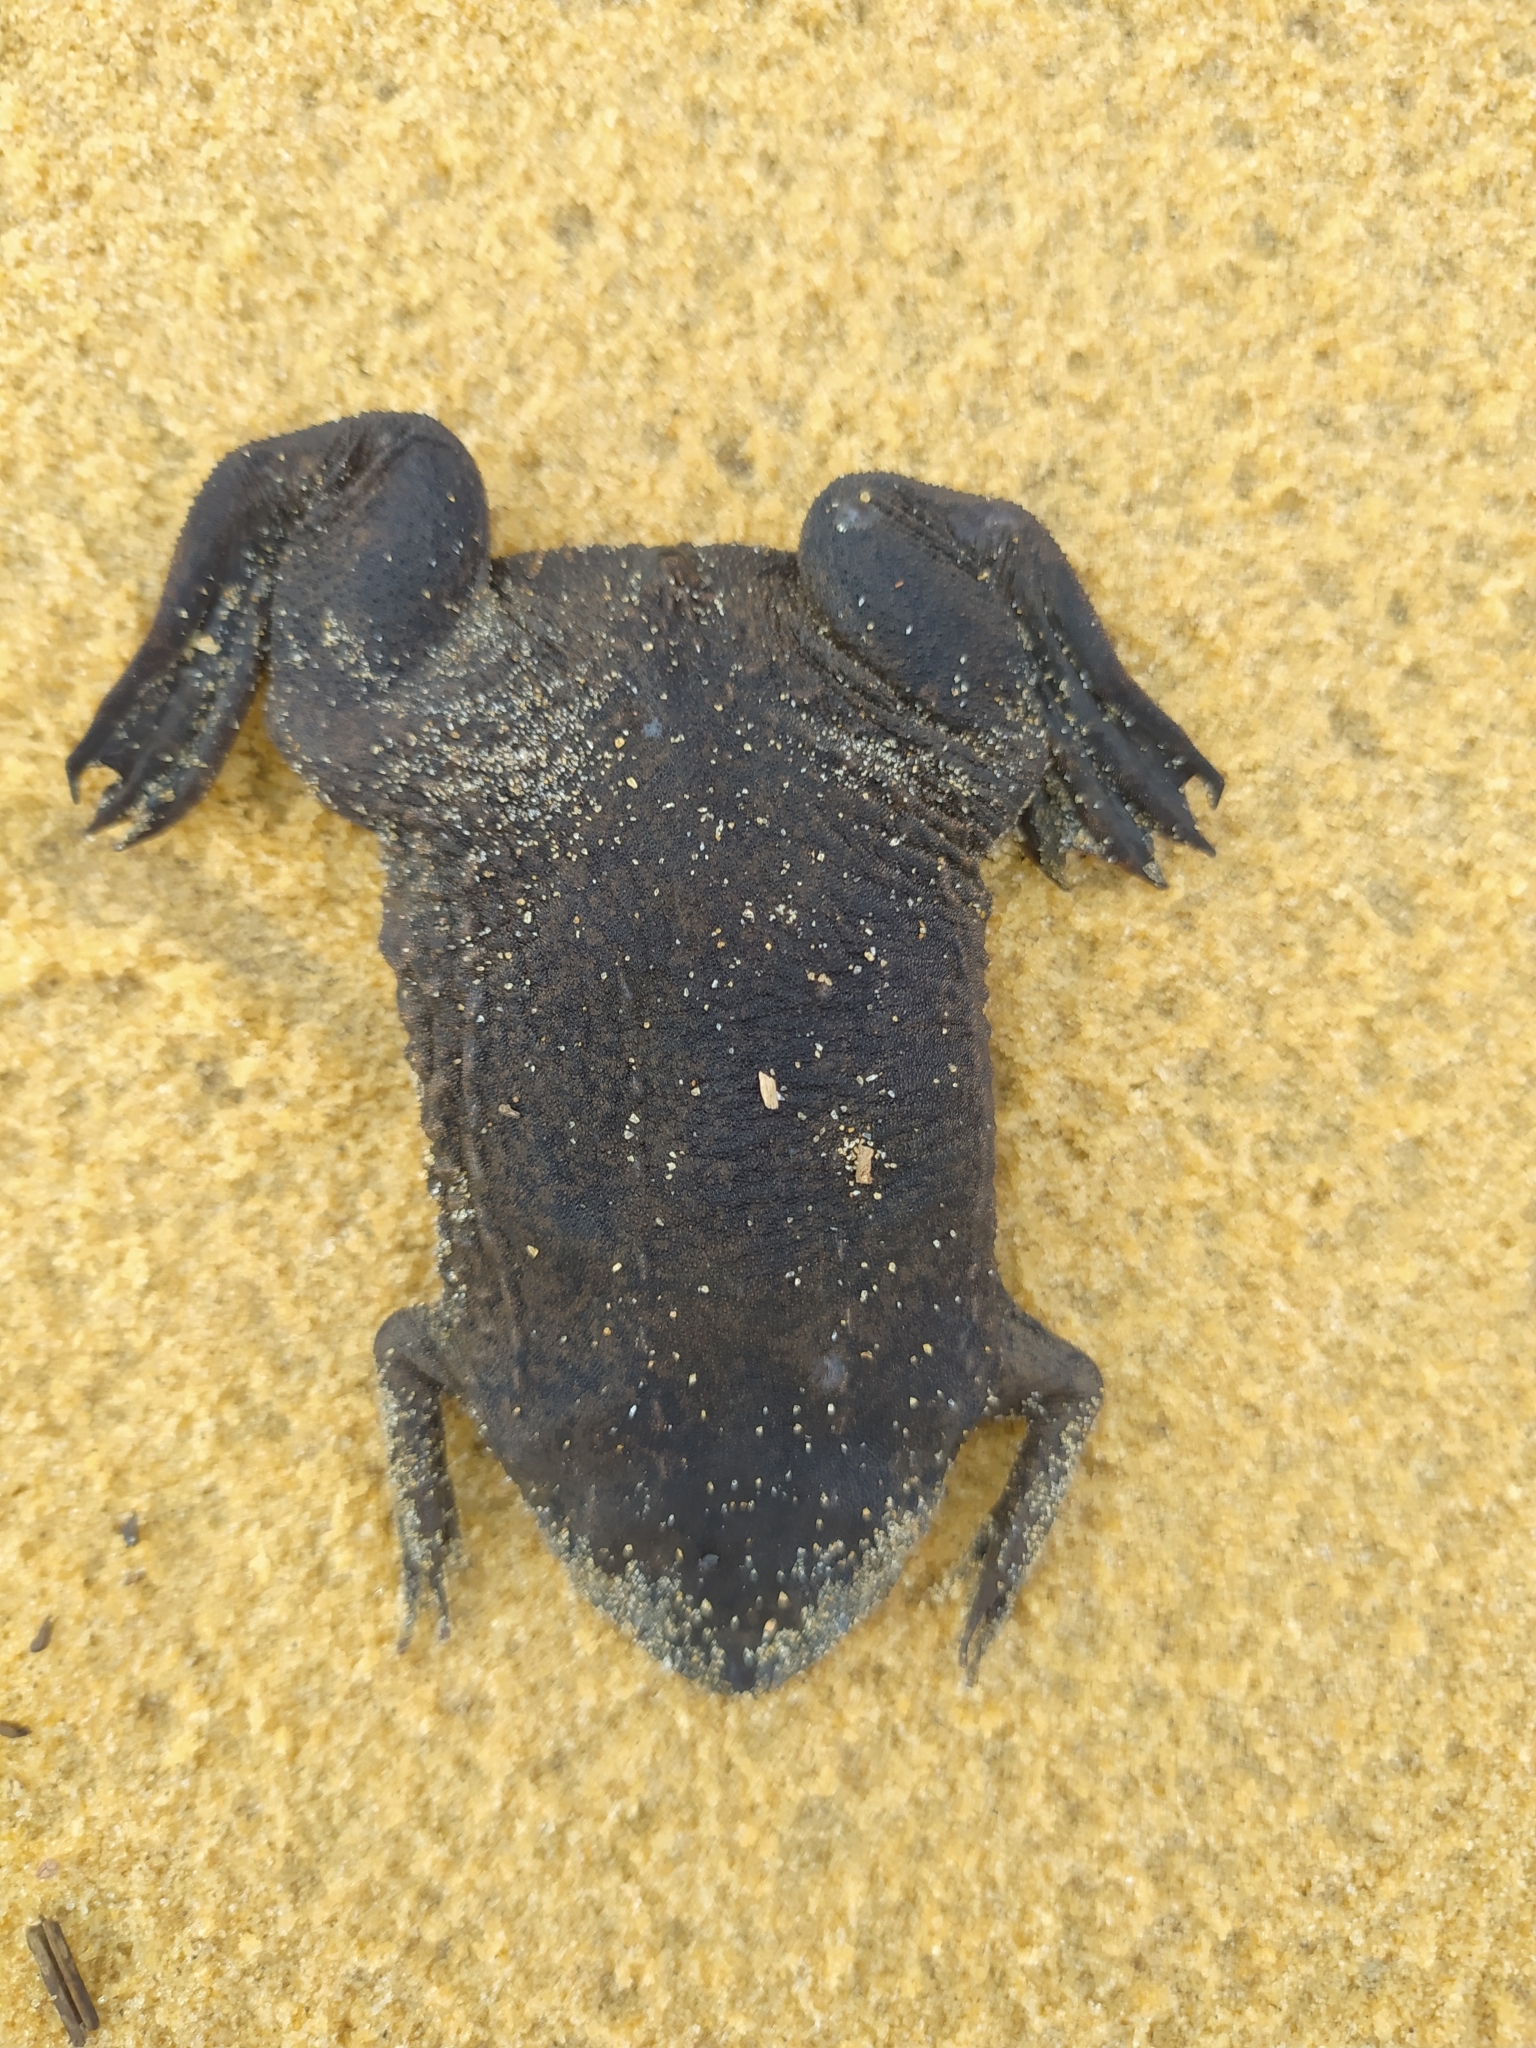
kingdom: Animalia
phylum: Chordata
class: Amphibia
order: Anura
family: Pipidae
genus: Pipa
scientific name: Pipa snethlageae
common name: Utinga surinam toad
